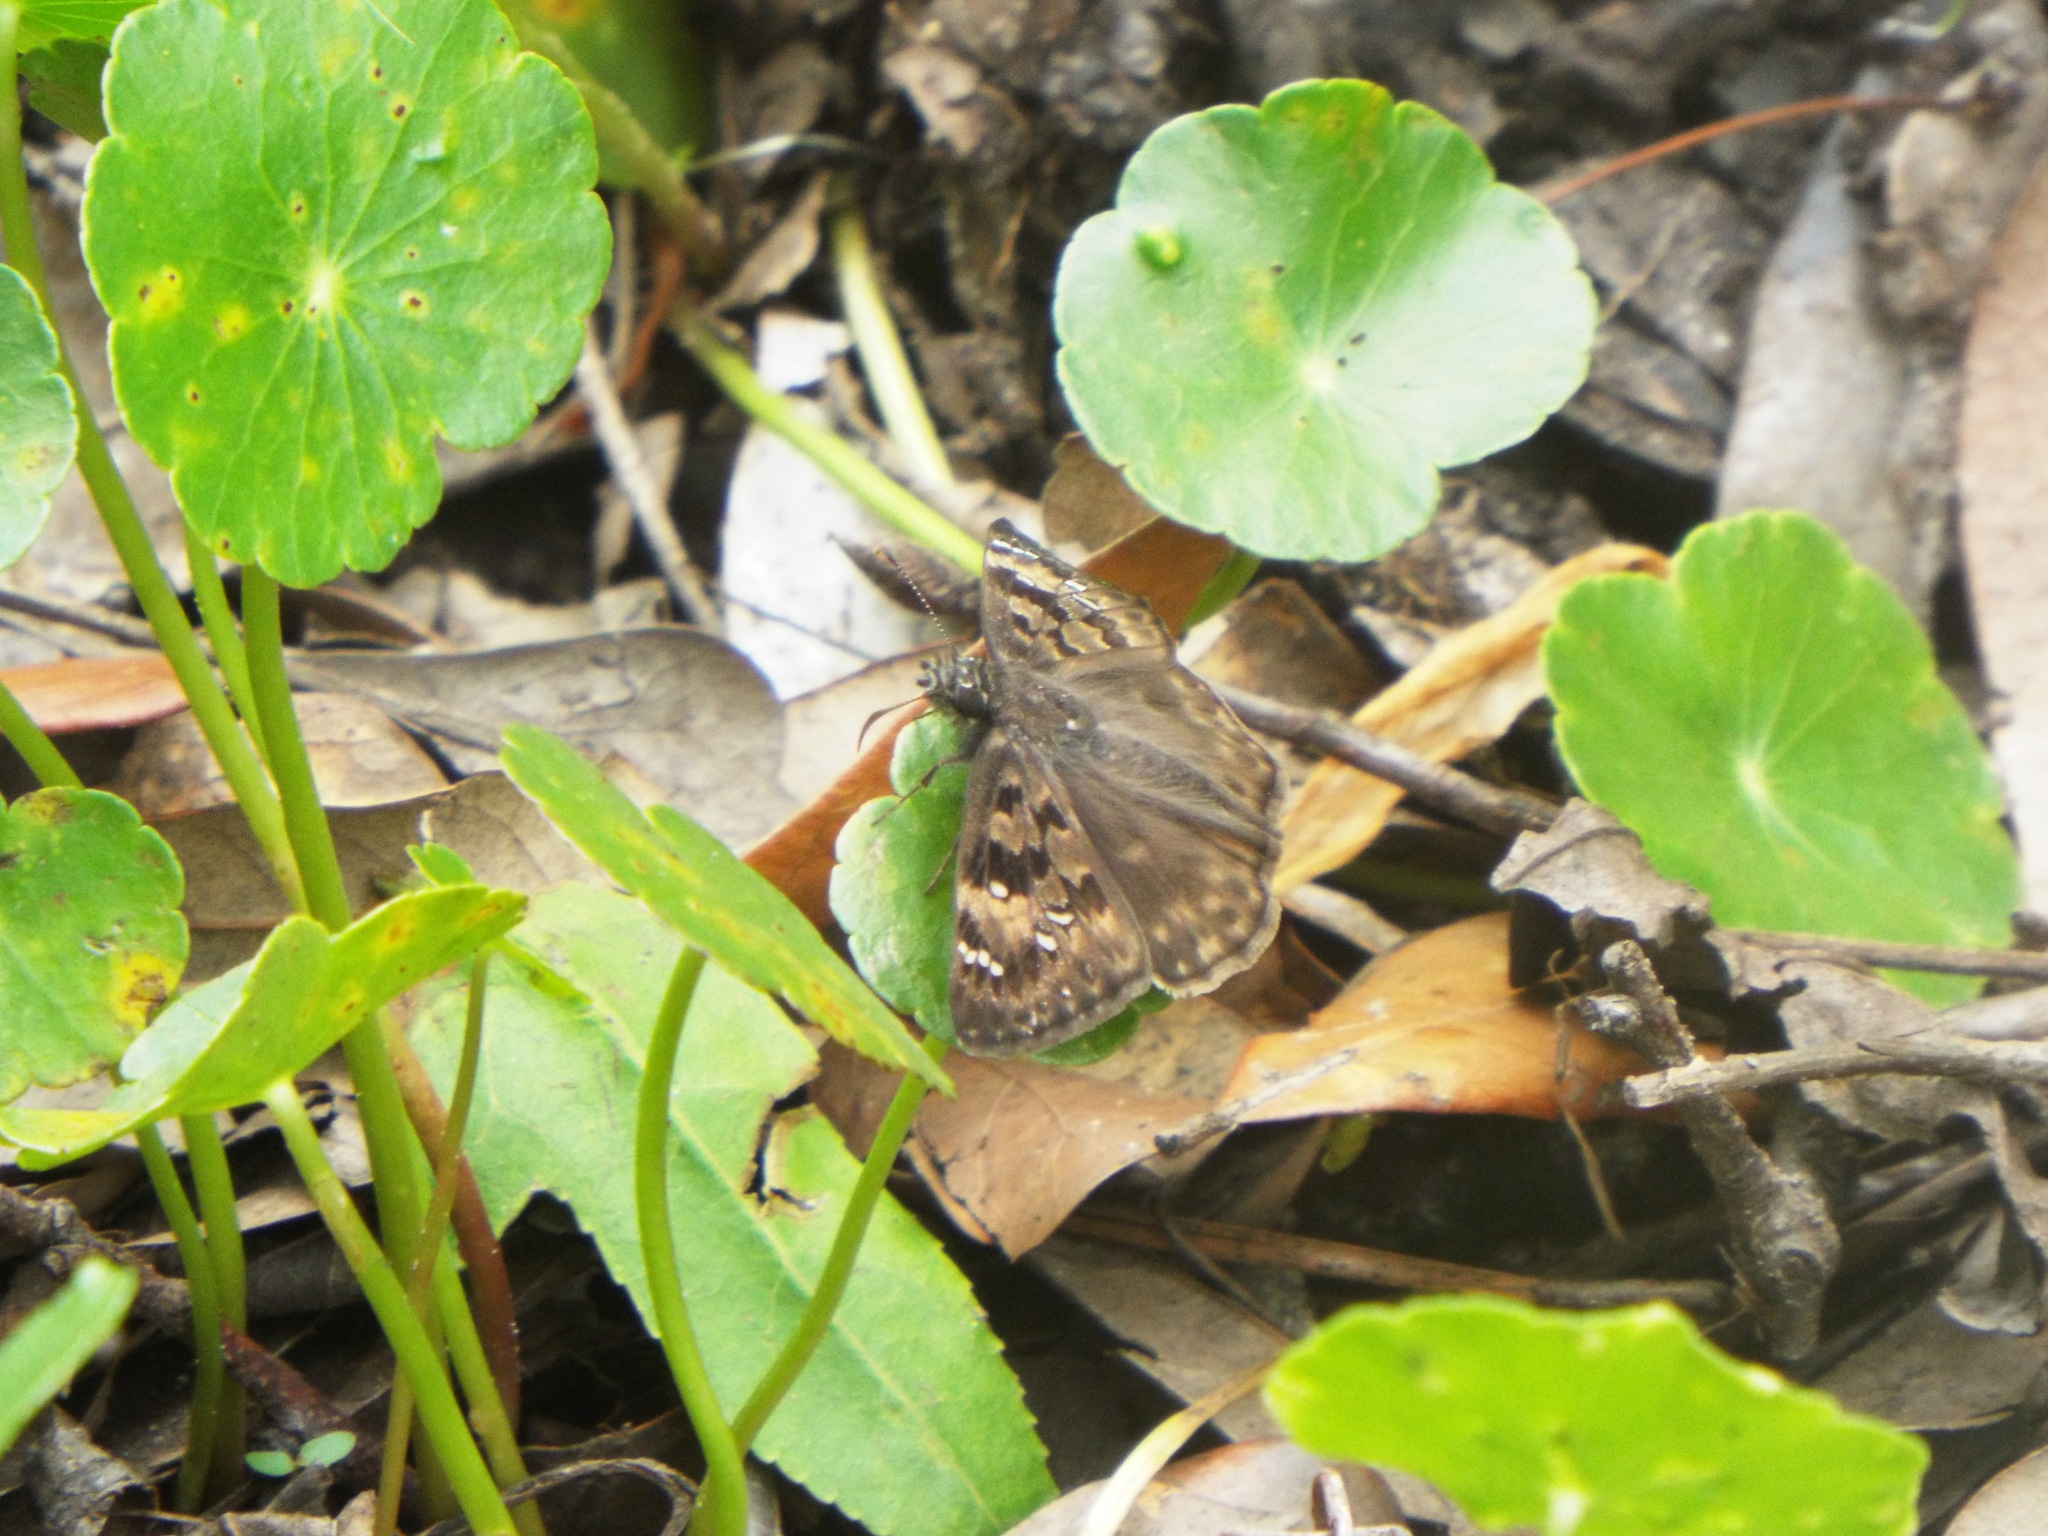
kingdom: Animalia
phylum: Arthropoda
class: Insecta
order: Lepidoptera
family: Hesperiidae
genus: Erynnis
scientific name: Erynnis horatius
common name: Horace's duskywing
